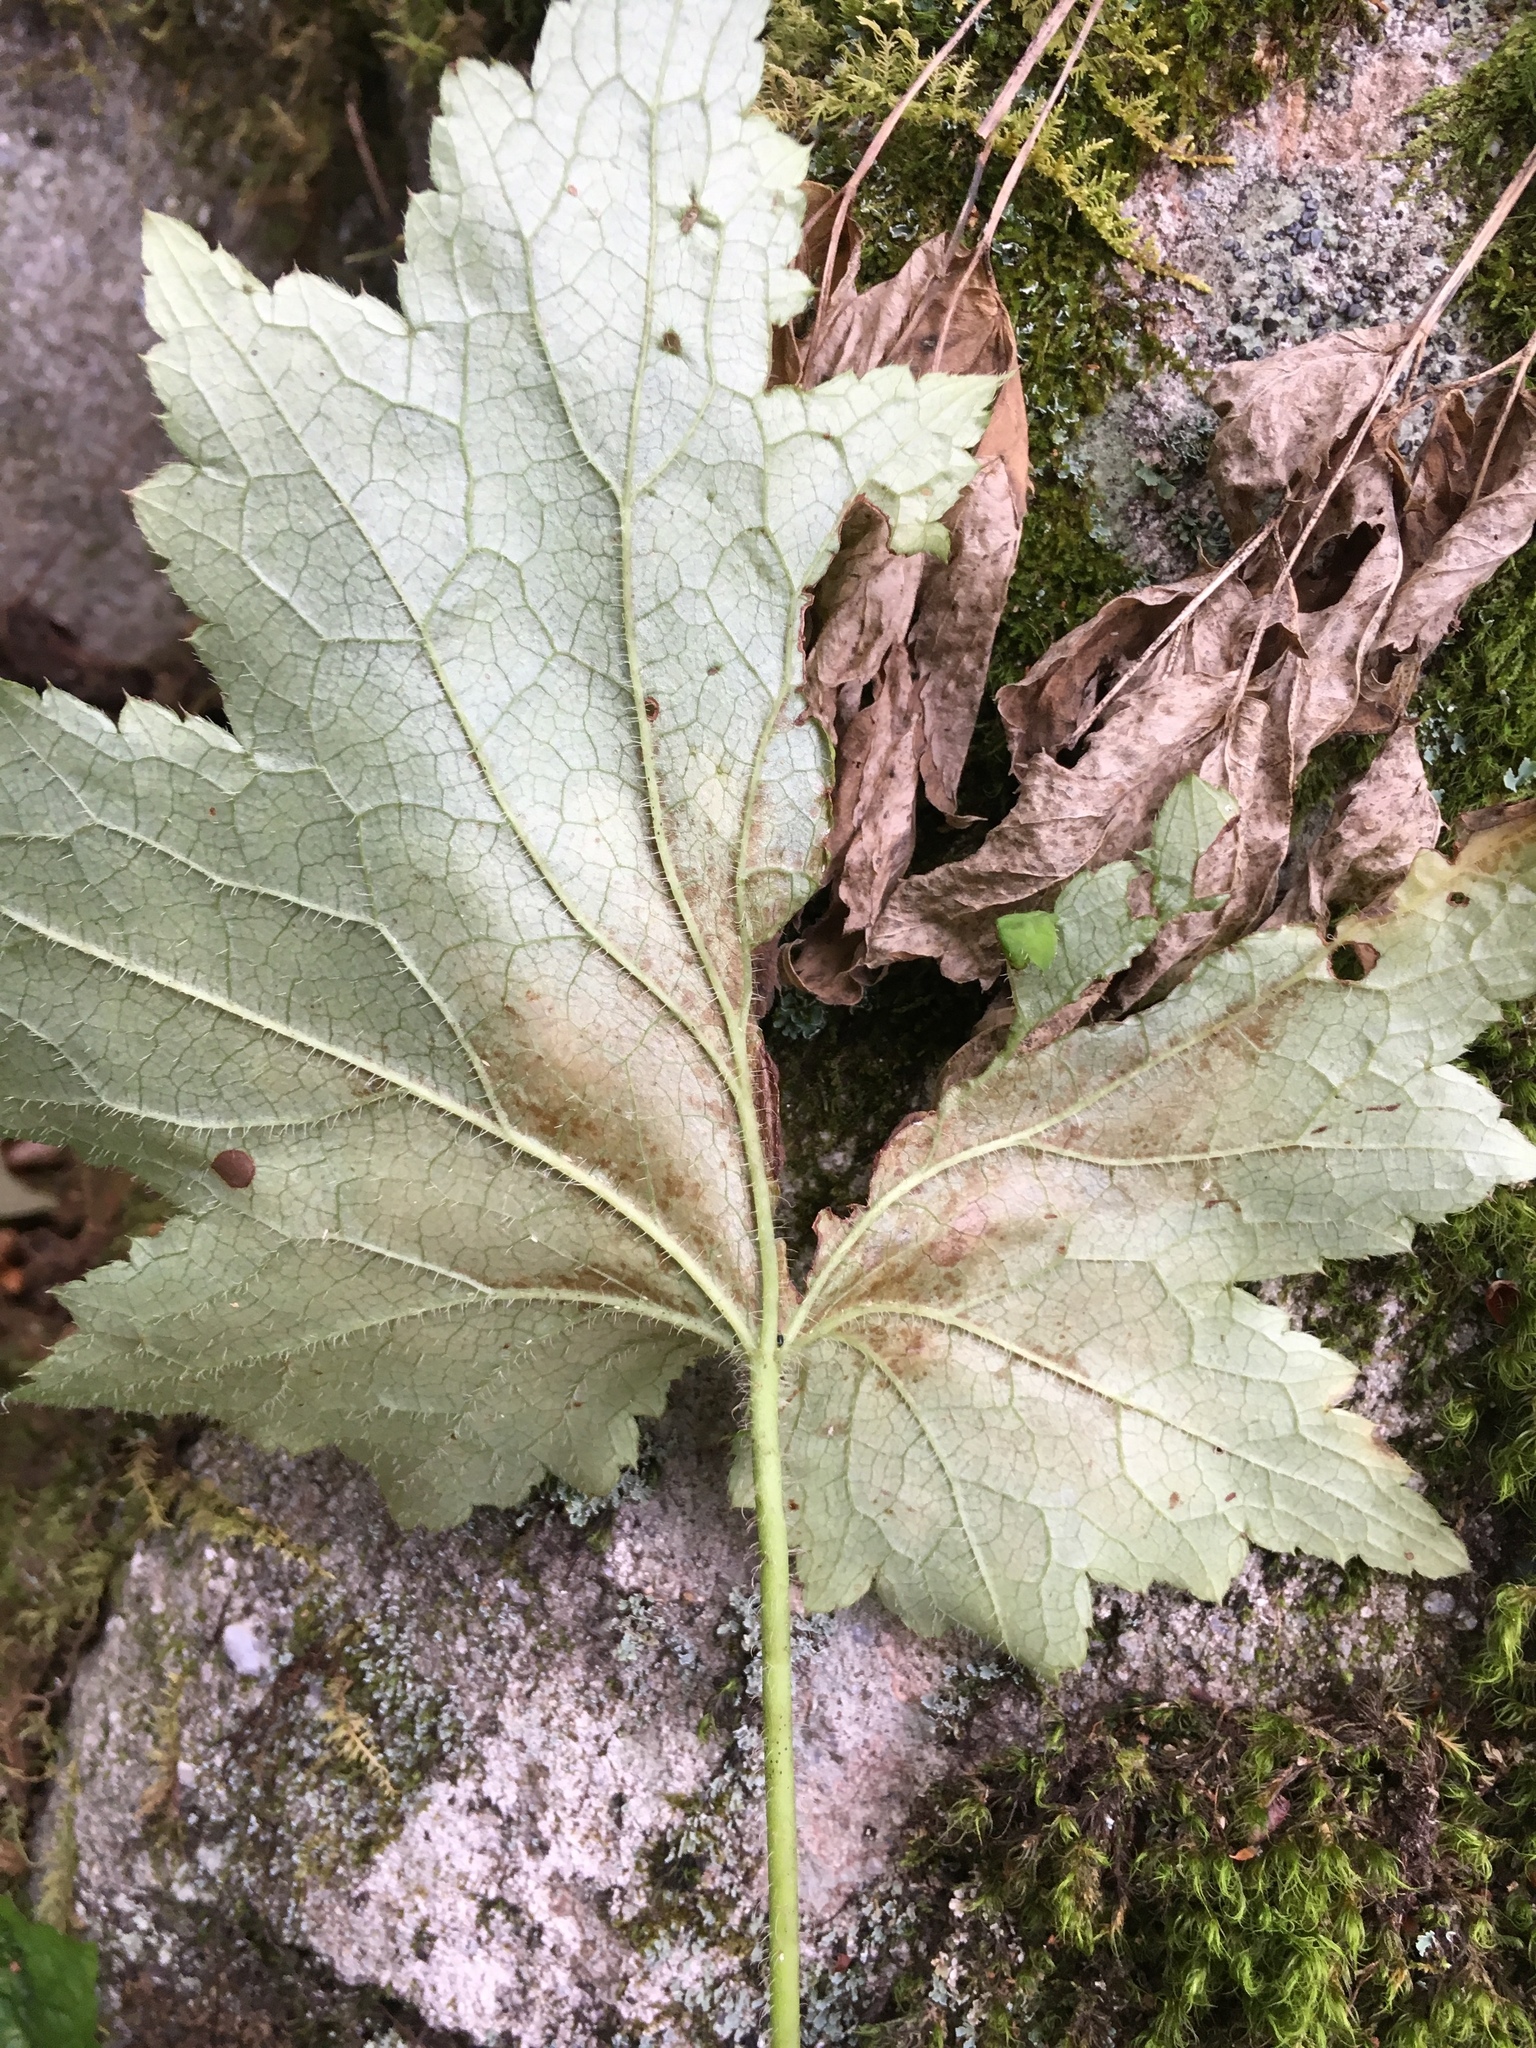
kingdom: Plantae
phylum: Tracheophyta
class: Magnoliopsida
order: Saxifragales
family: Saxifragaceae
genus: Heuchera
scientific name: Heuchera villosa
